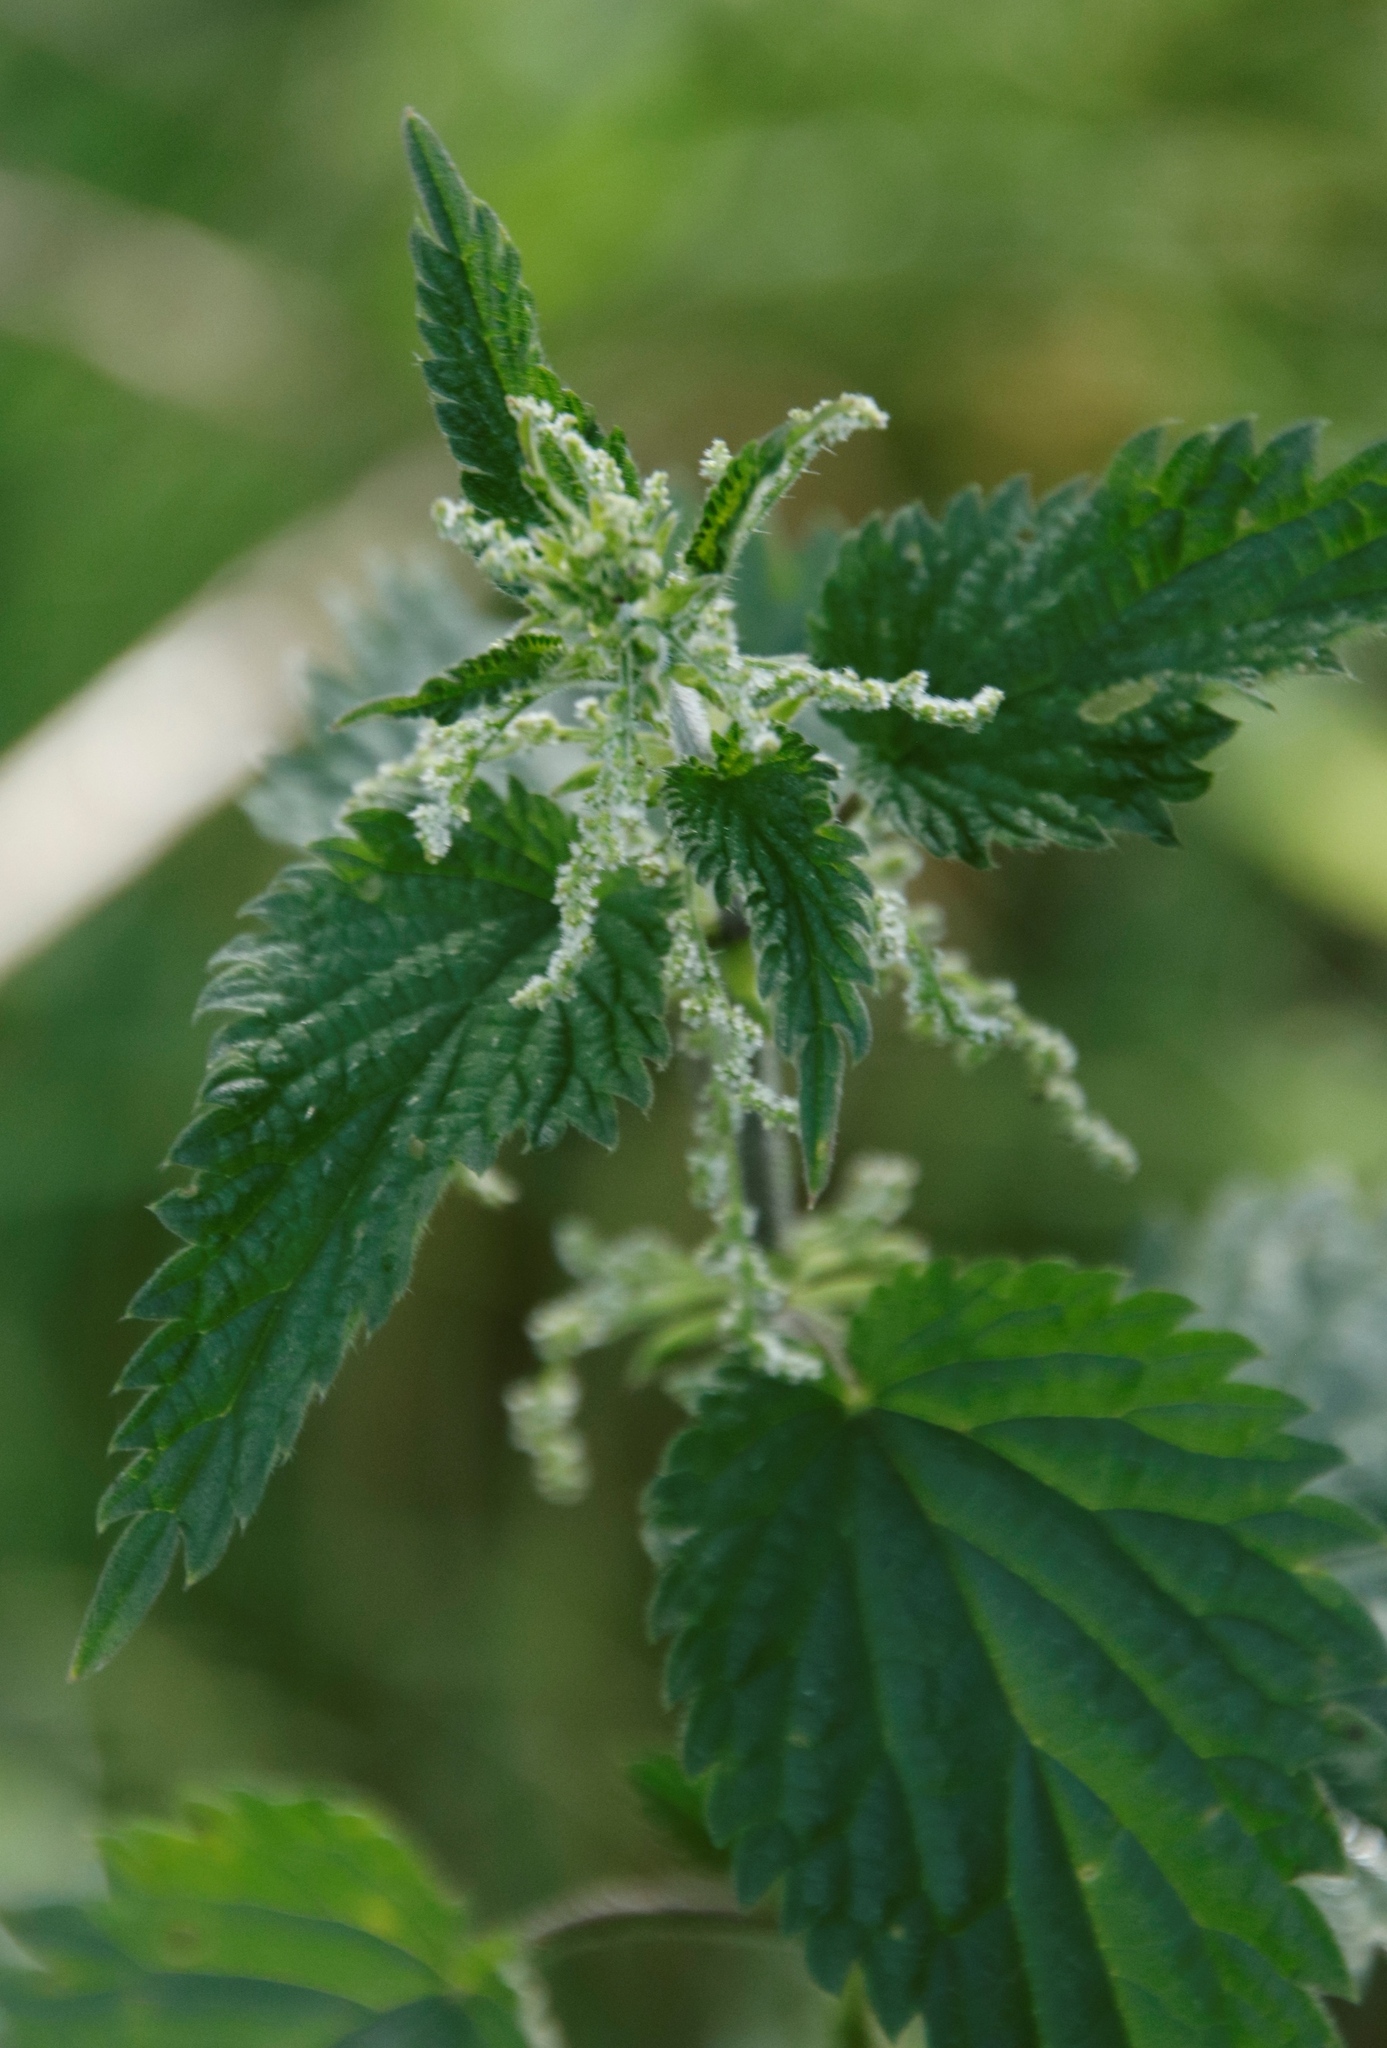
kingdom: Plantae
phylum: Tracheophyta
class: Magnoliopsida
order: Rosales
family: Urticaceae
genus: Urtica
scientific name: Urtica dioica
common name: Common nettle
